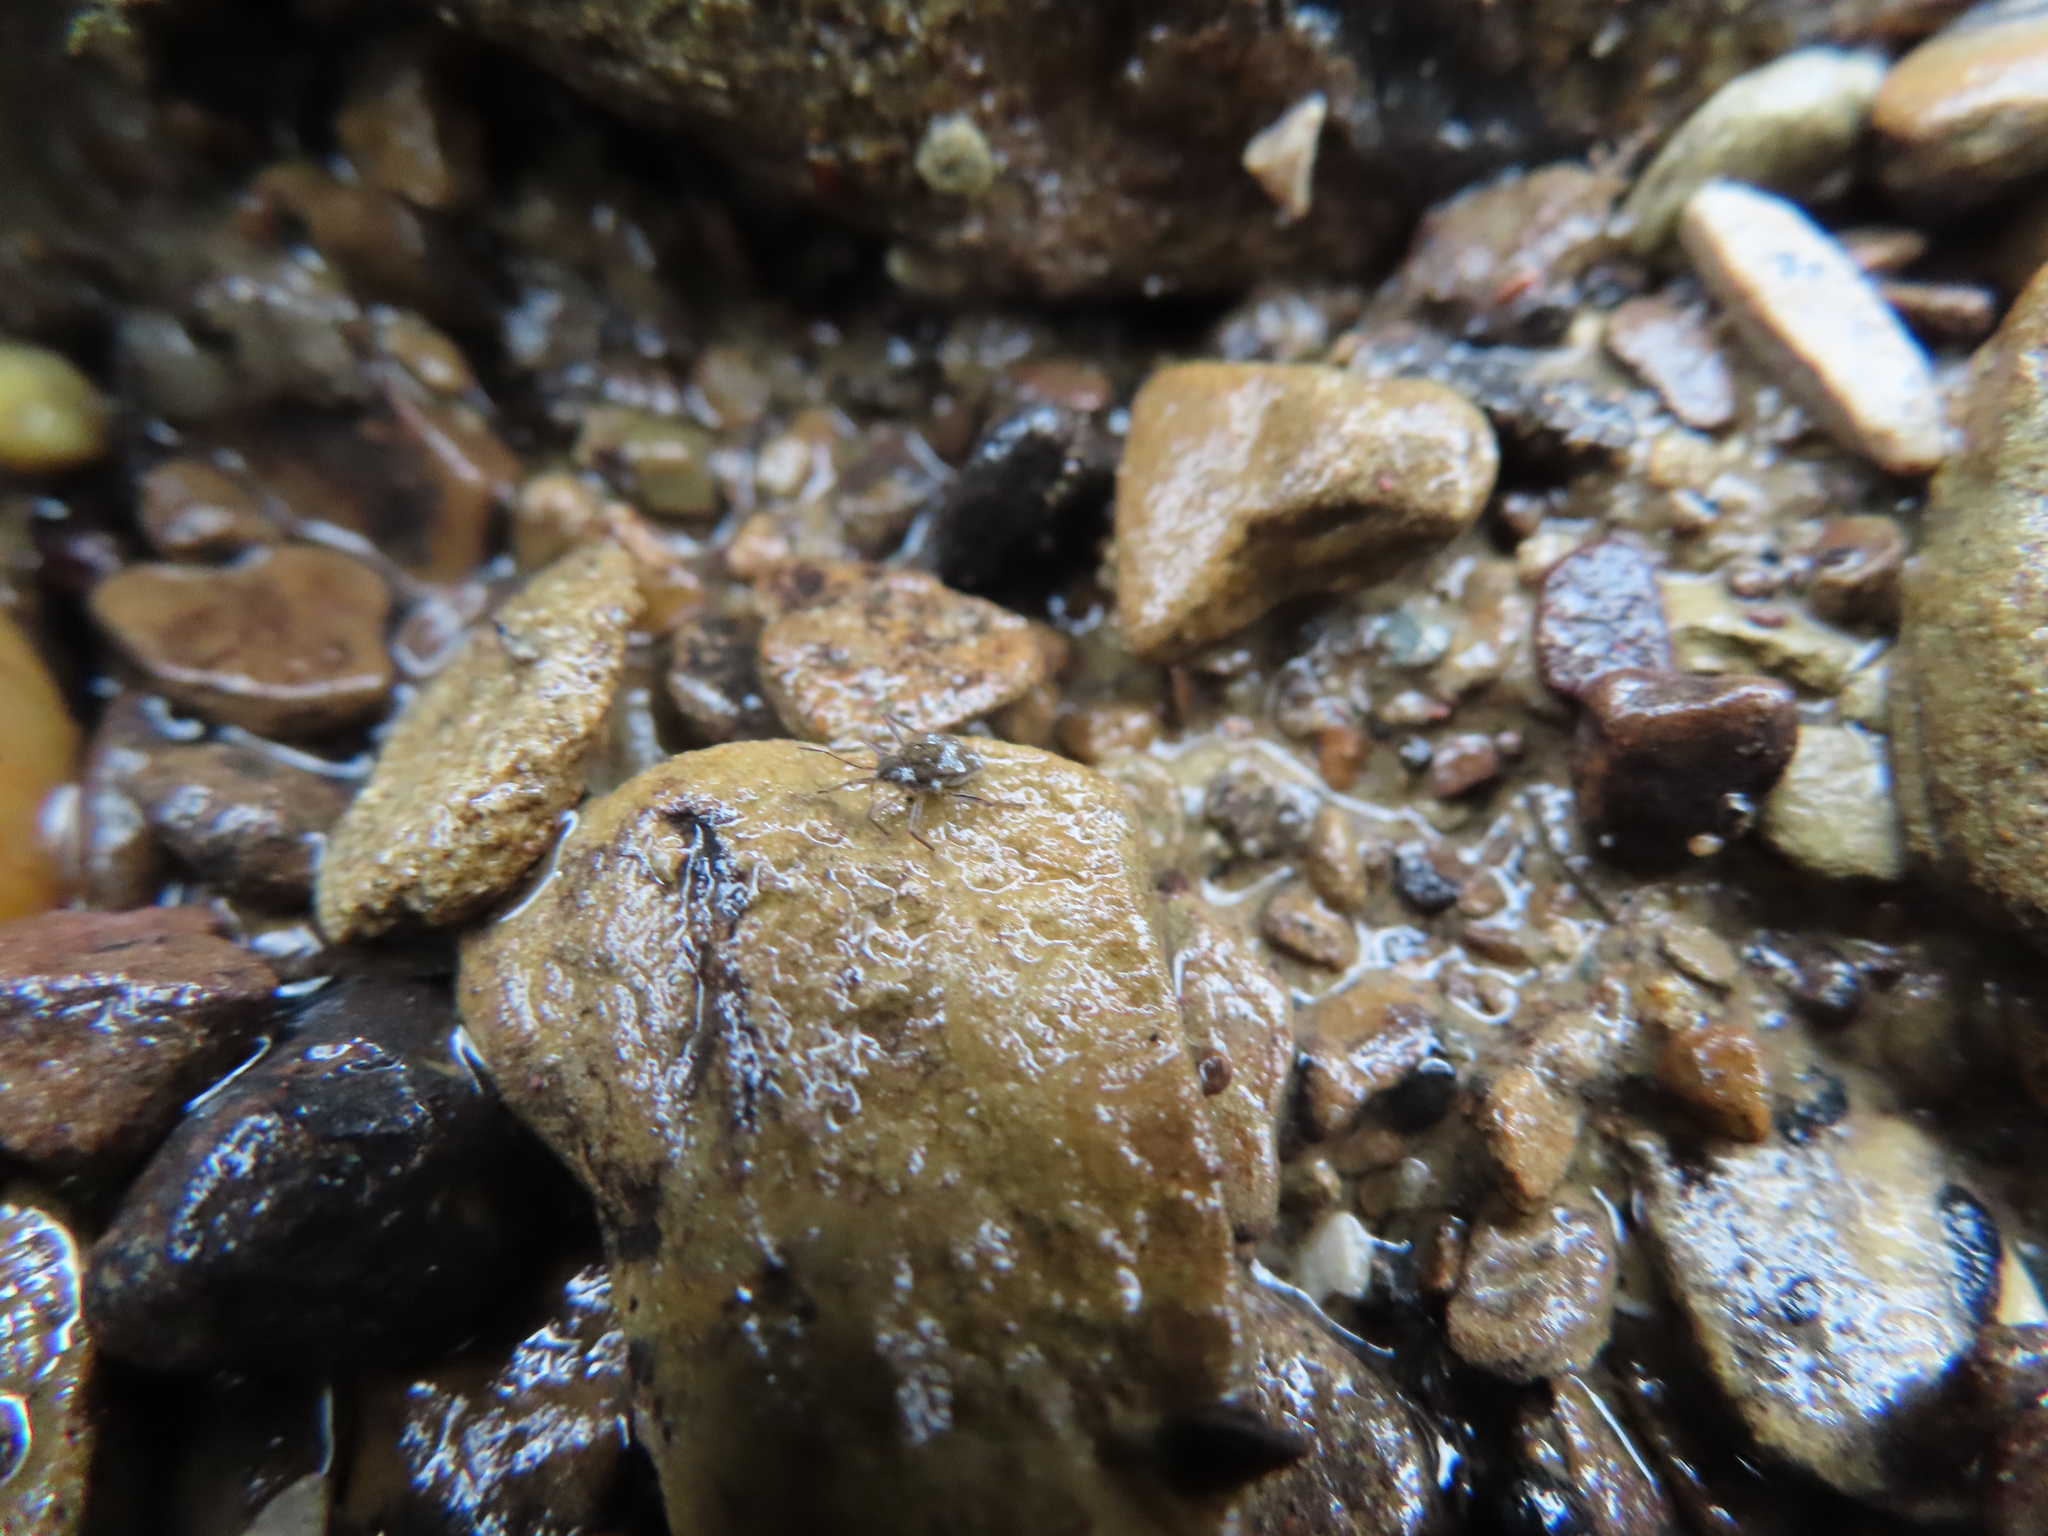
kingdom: Animalia
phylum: Arthropoda
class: Insecta
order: Hemiptera
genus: Kirkaldya
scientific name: Kirkaldya
